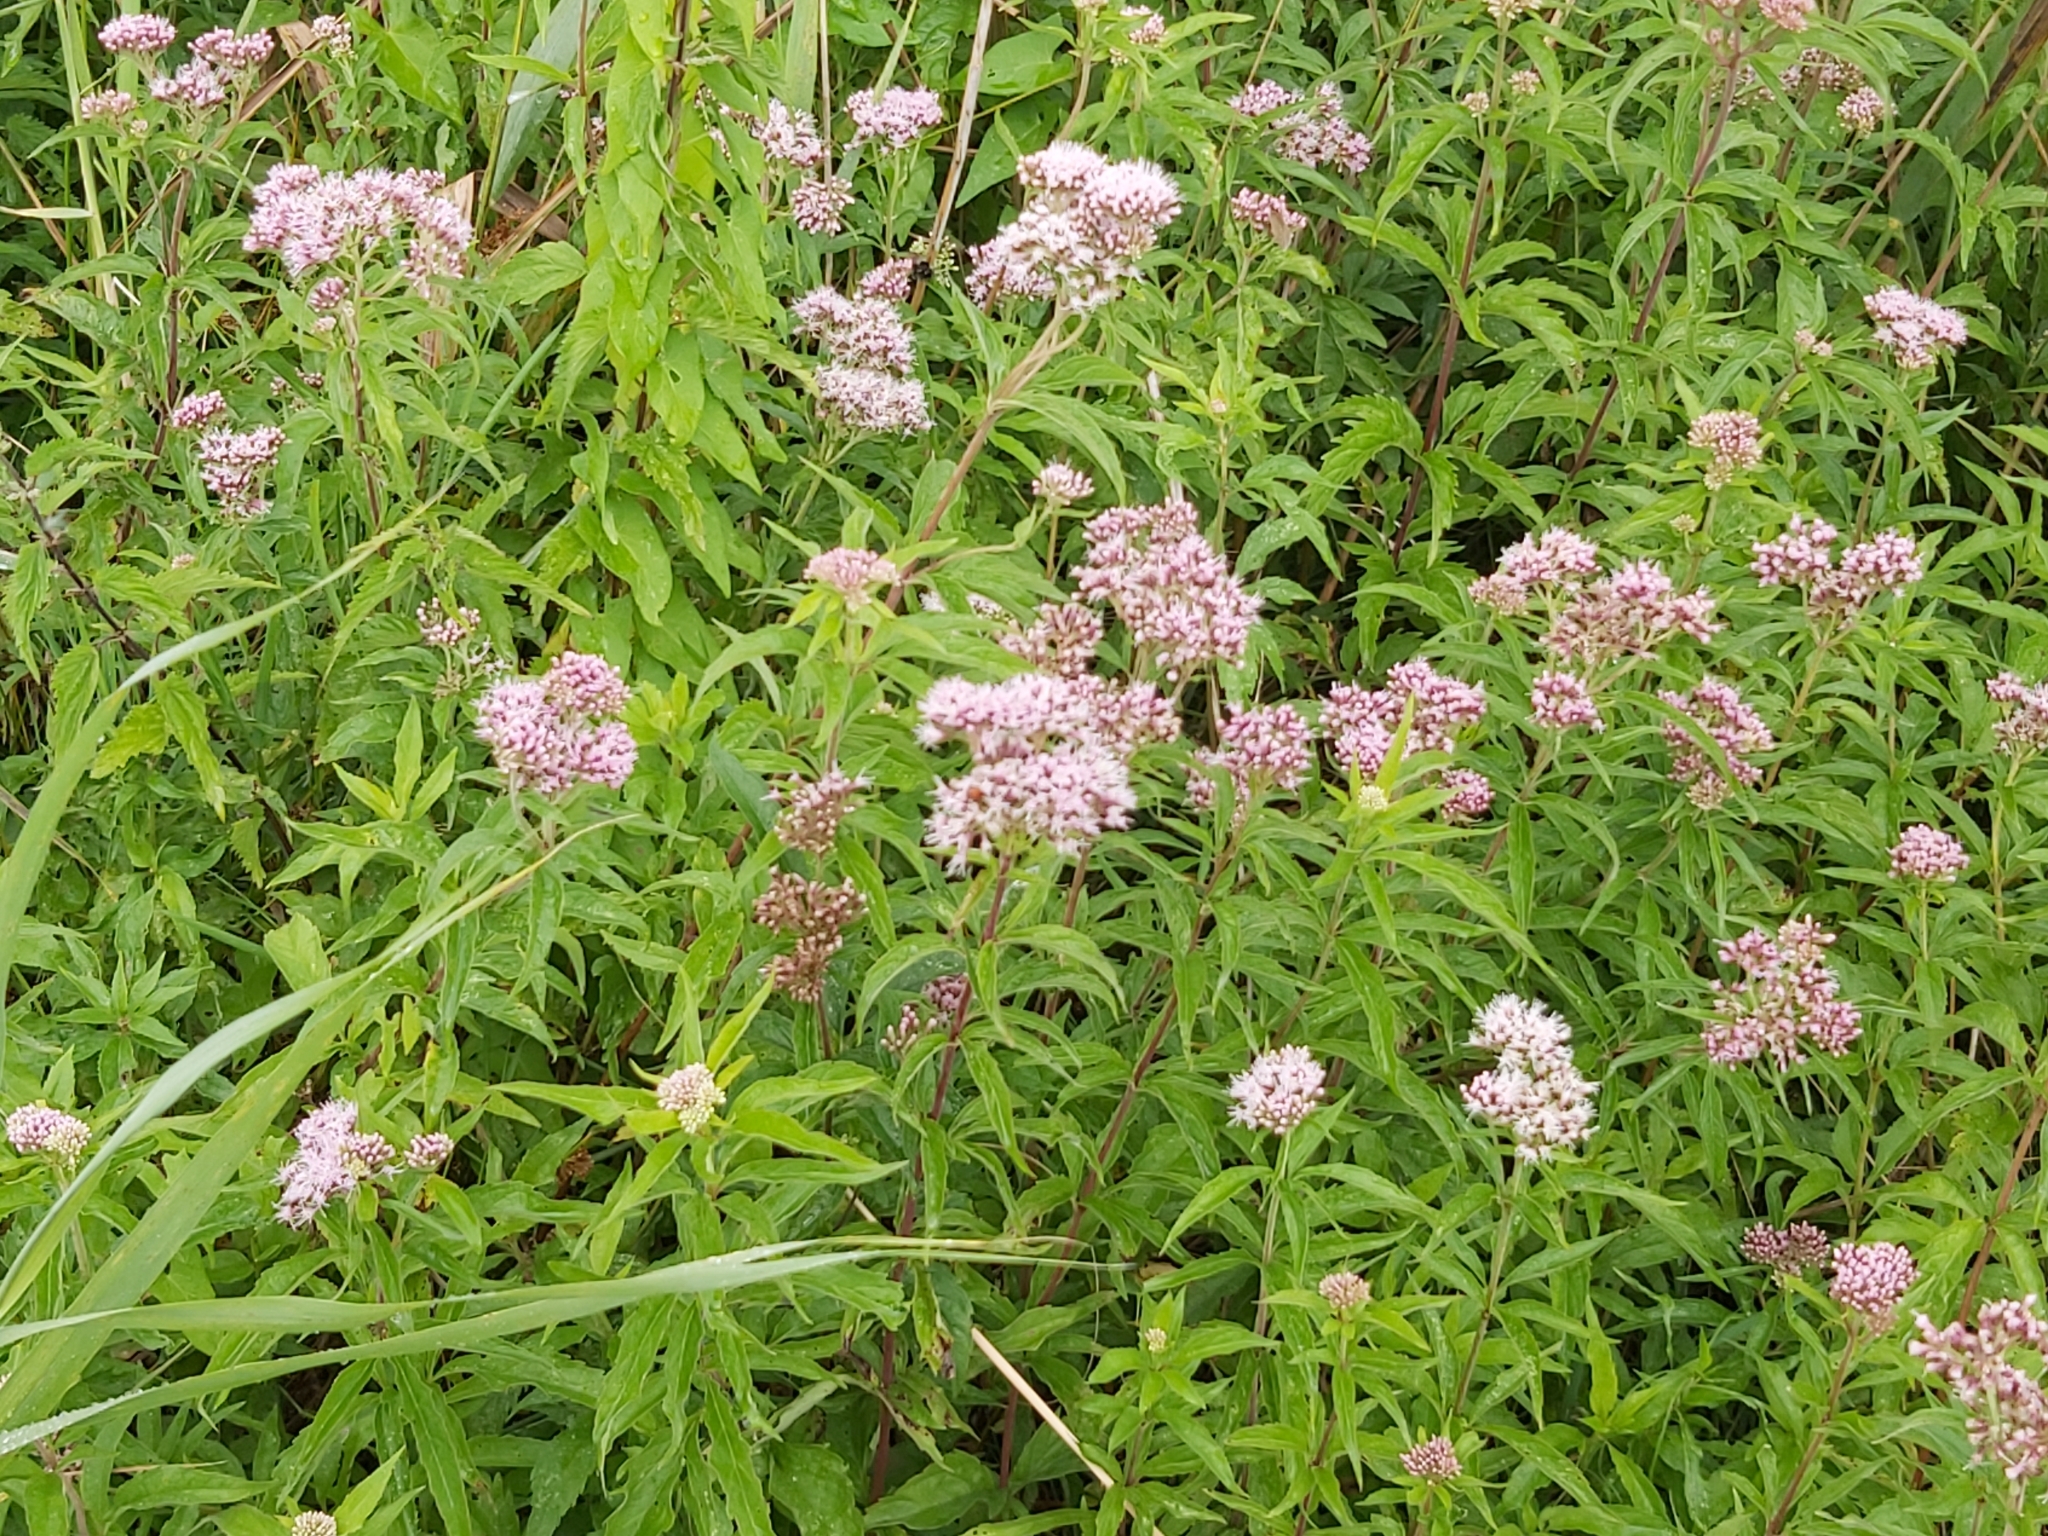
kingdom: Plantae
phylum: Tracheophyta
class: Magnoliopsida
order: Asterales
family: Asteraceae
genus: Eupatorium
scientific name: Eupatorium cannabinum
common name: Hemp-agrimony
